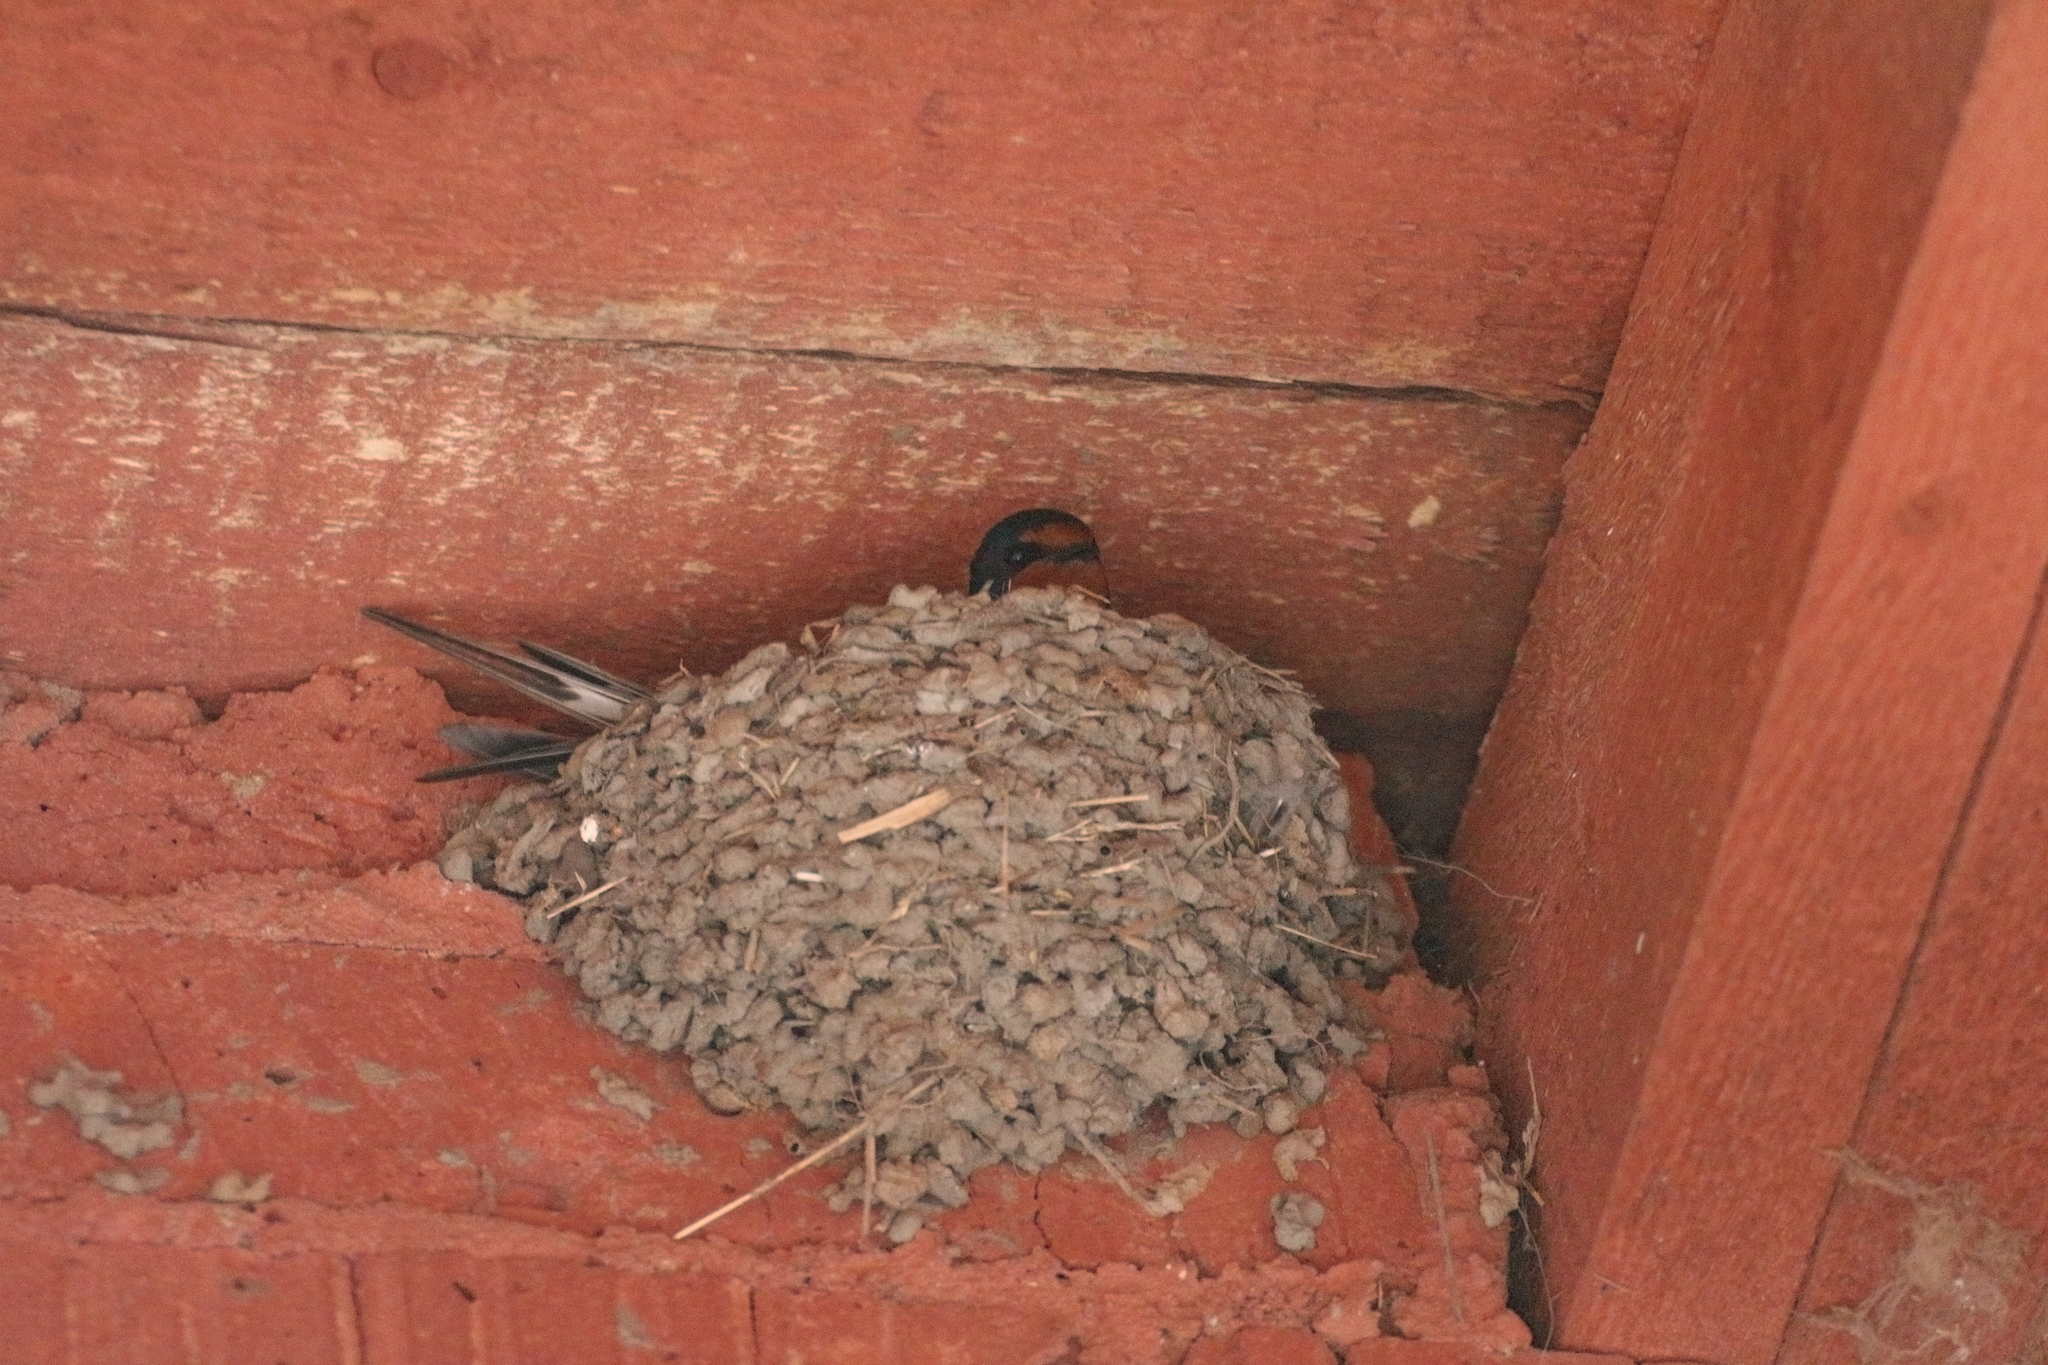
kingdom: Animalia
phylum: Chordata
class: Aves
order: Passeriformes
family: Hirundinidae
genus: Hirundo
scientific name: Hirundo rustica
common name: Barn swallow
